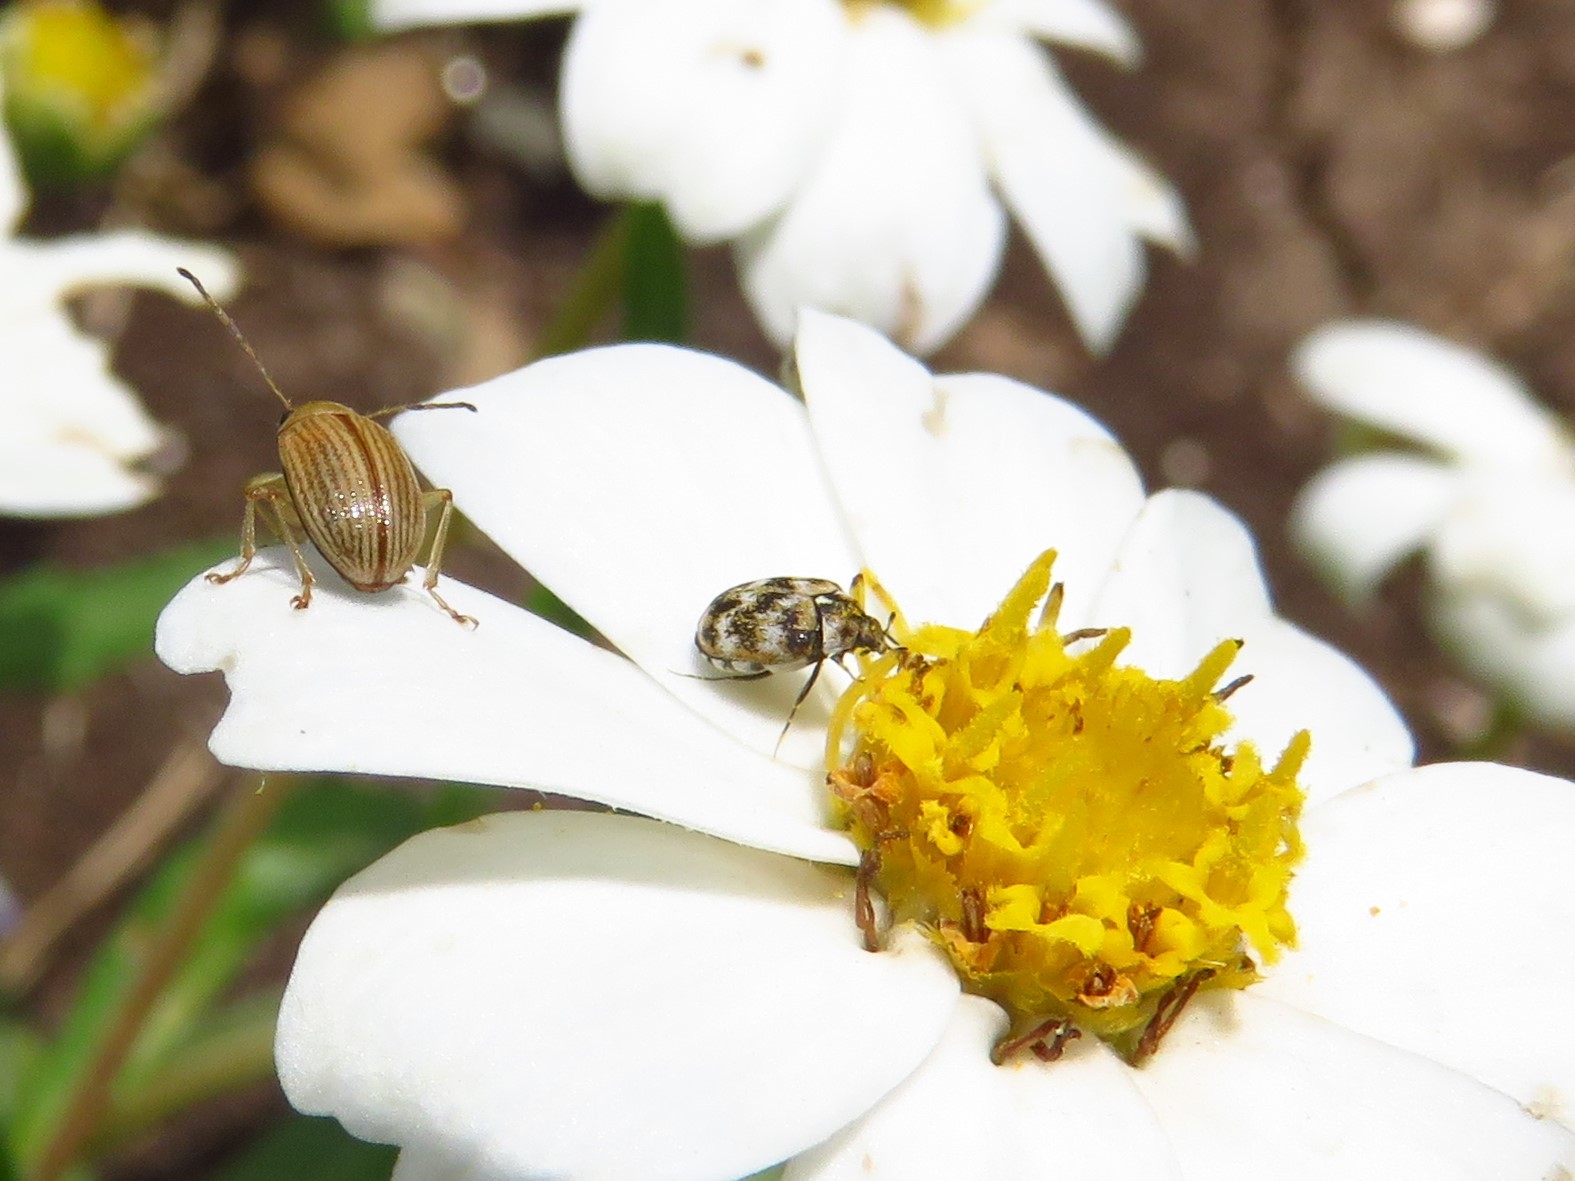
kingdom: Animalia
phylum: Arthropoda
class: Insecta
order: Coleoptera
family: Dermestidae
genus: Anthrenus
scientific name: Anthrenus verbasci
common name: Varied carpet beetle
